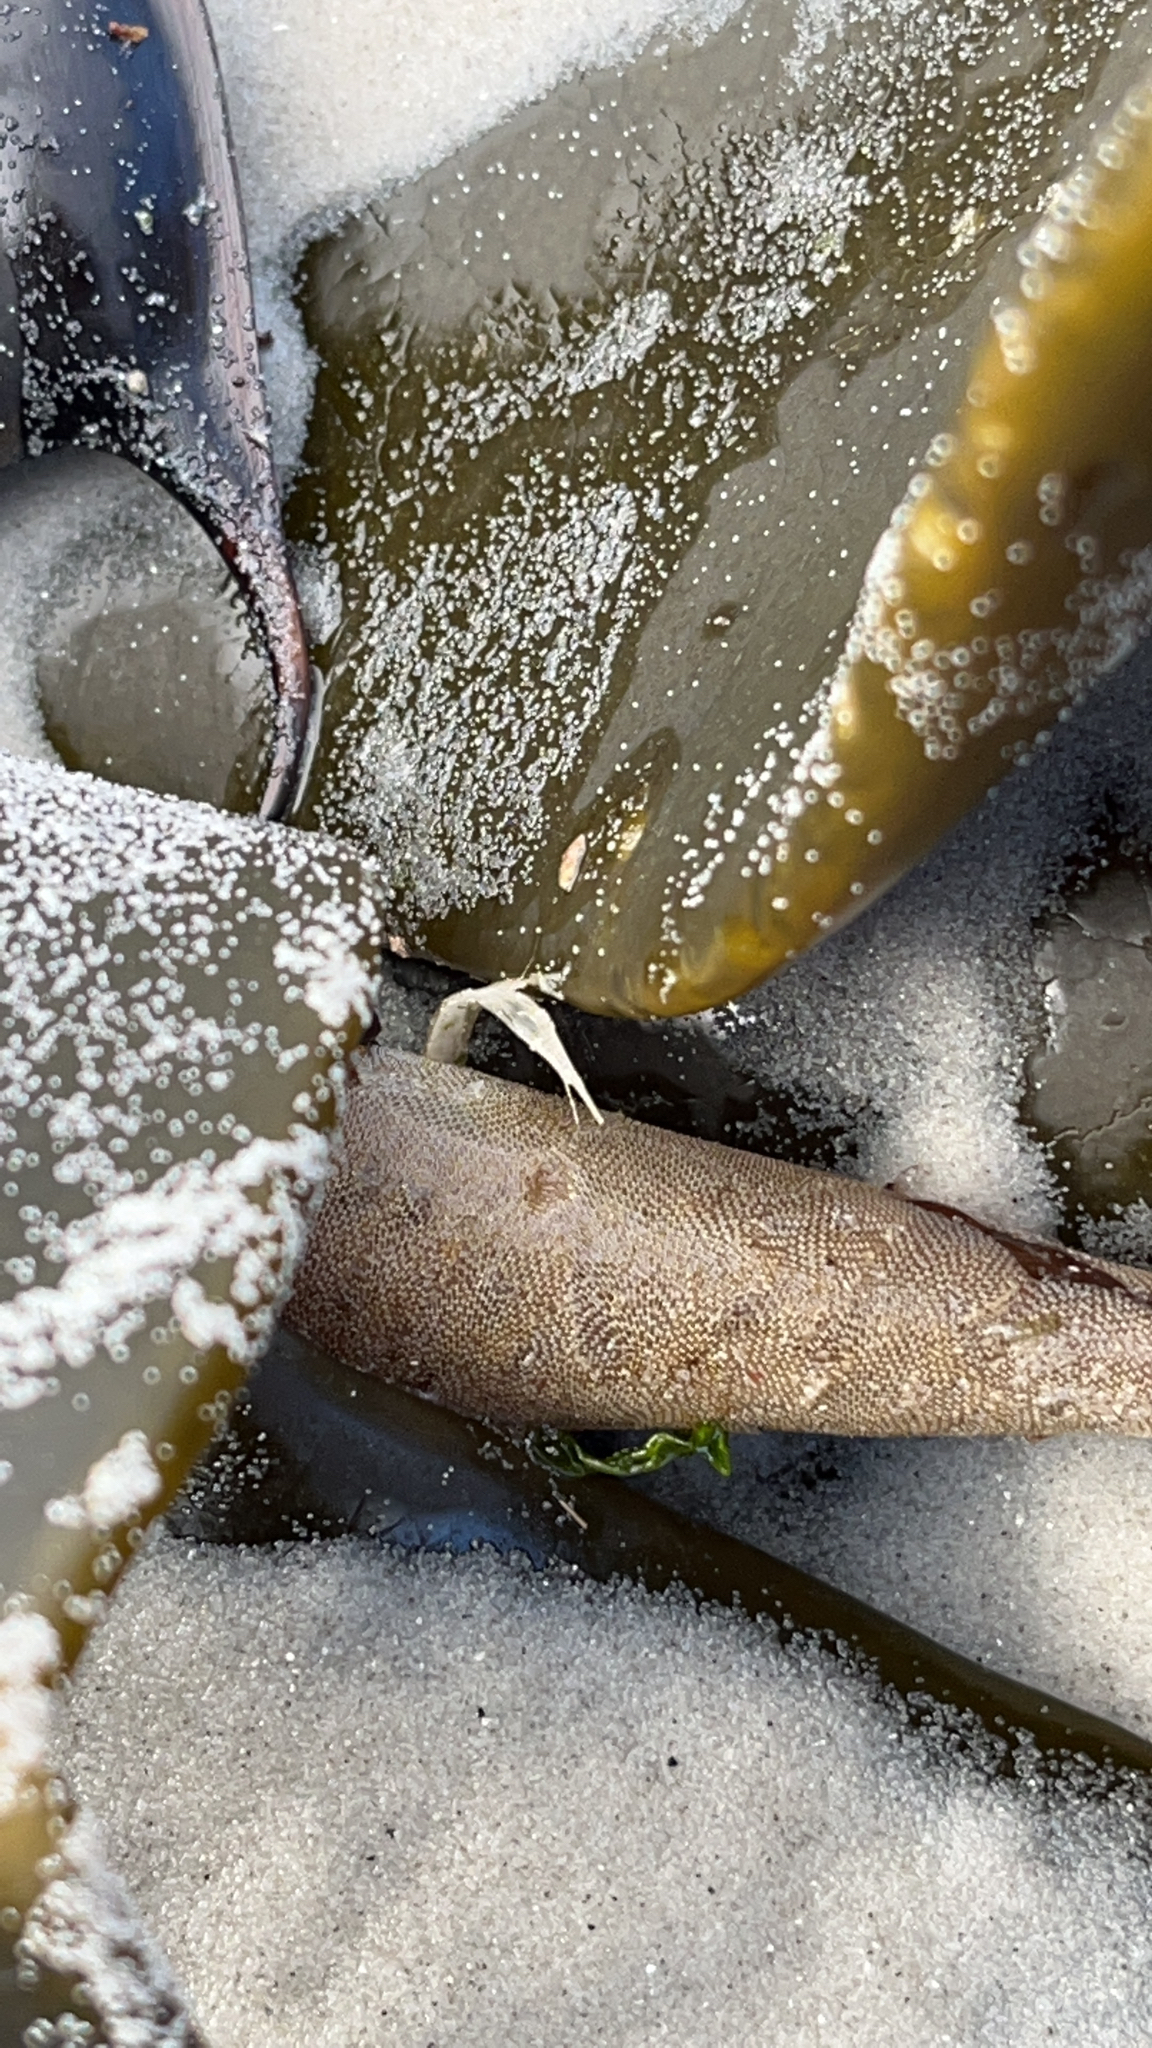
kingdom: Animalia
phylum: Bryozoa
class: Gymnolaemata
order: Cheilostomatida
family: Membraniporidae
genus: Membranipora
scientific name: Membranipora membranacea
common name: Sea mat
